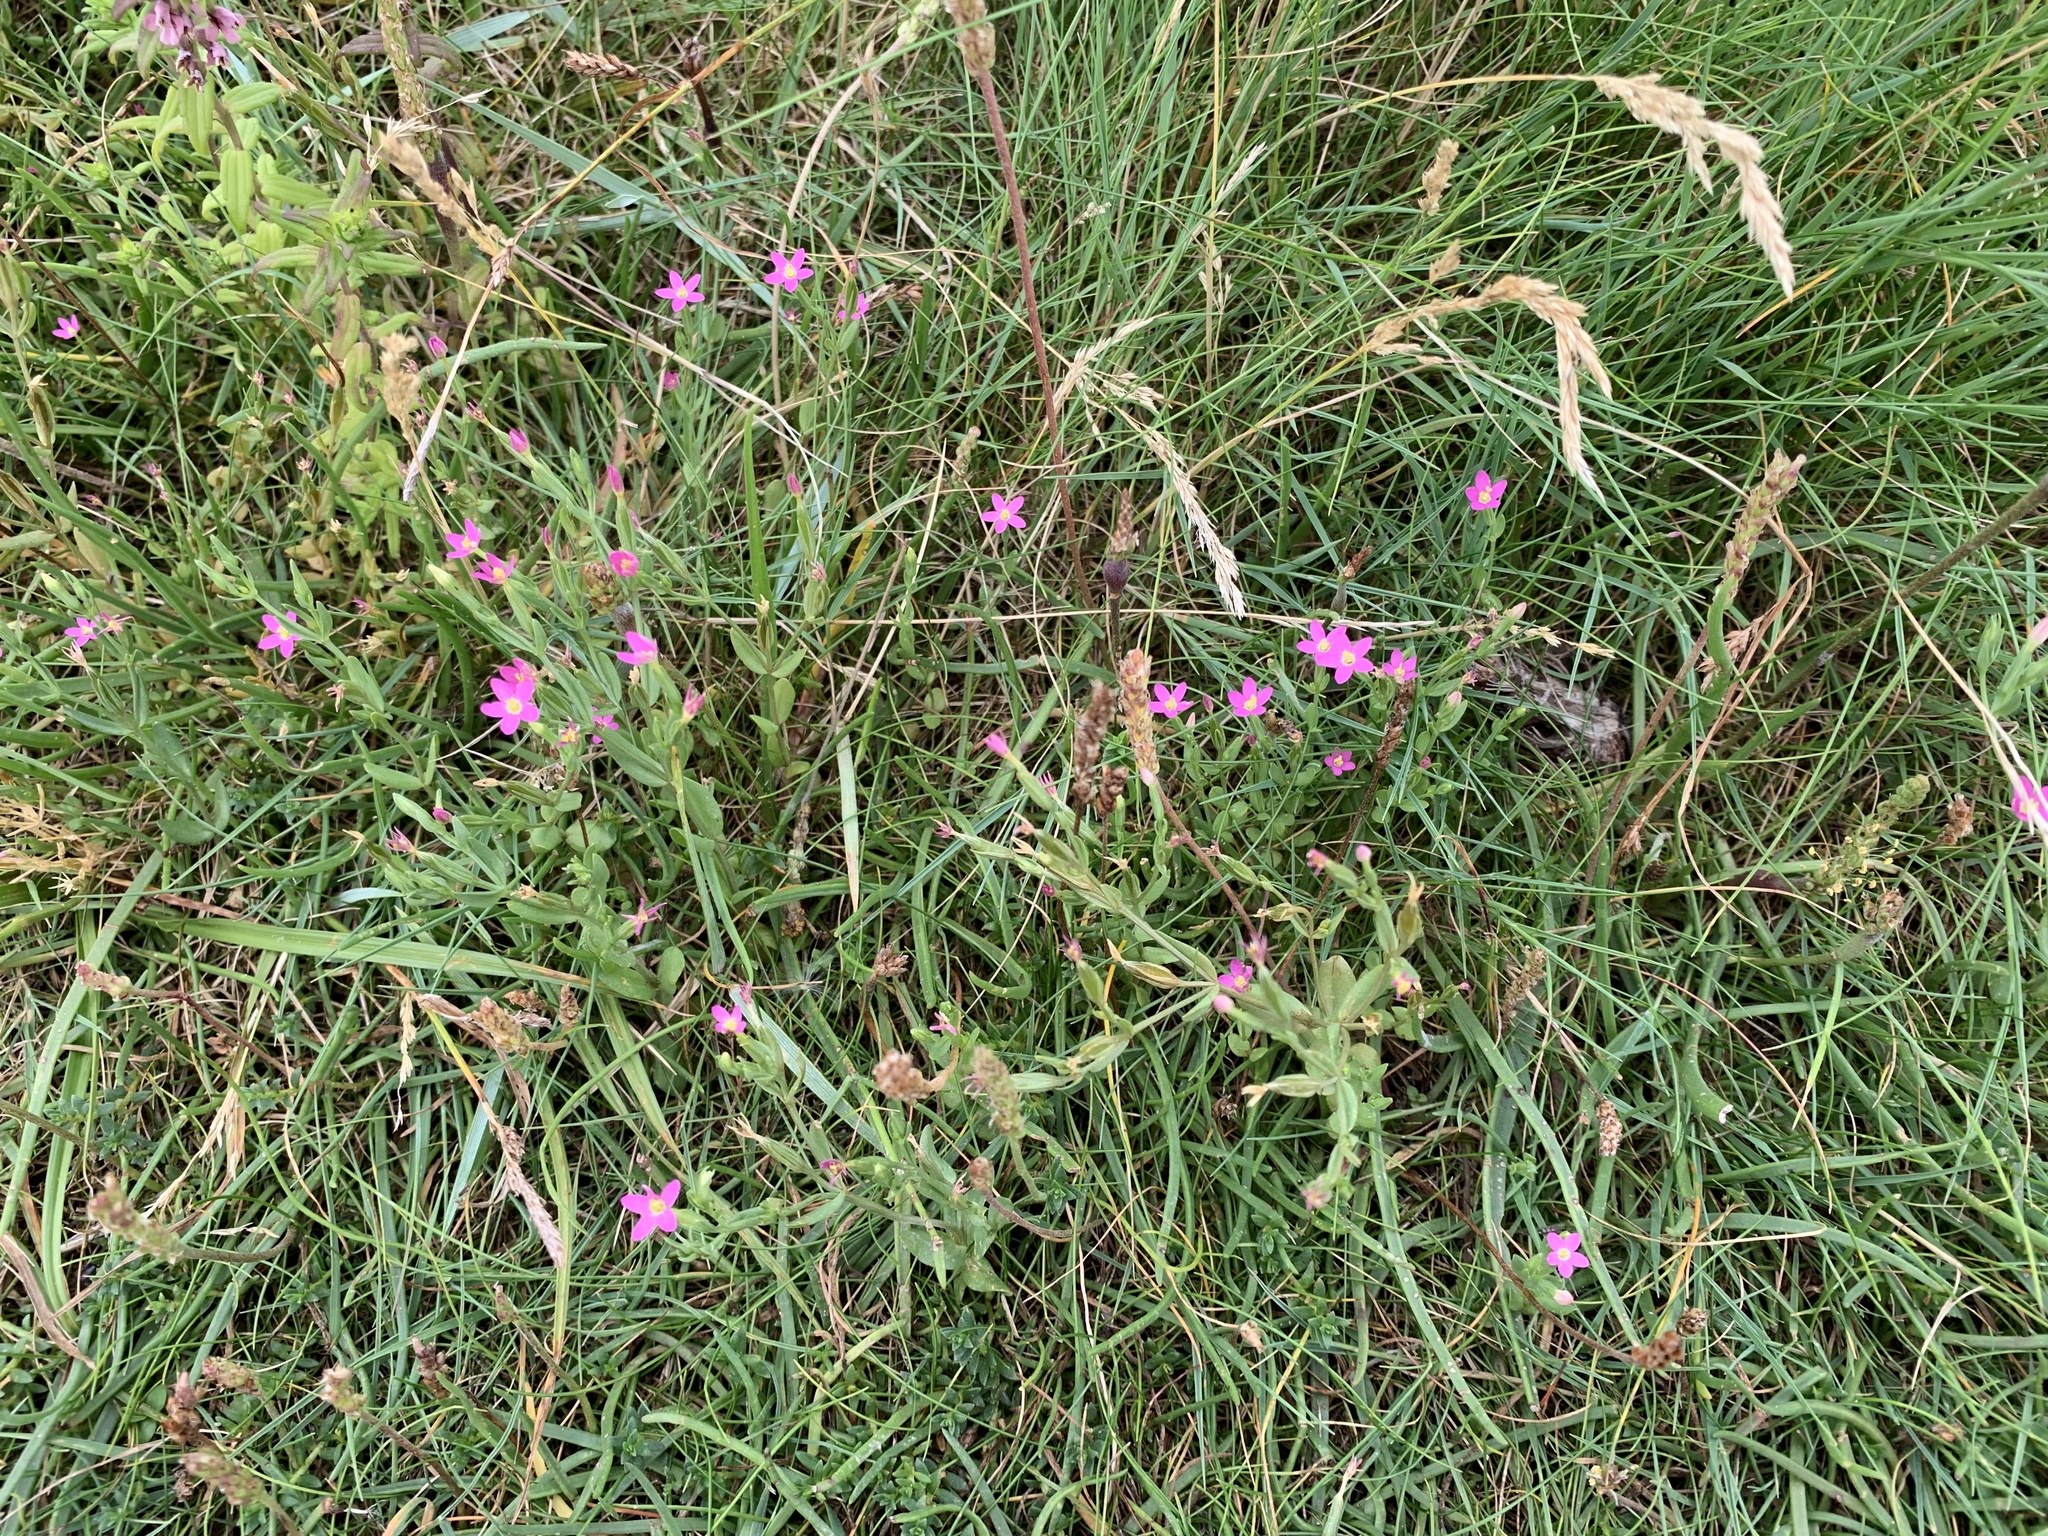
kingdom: Plantae
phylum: Tracheophyta
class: Magnoliopsida
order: Gentianales
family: Gentianaceae
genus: Centaurium
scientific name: Centaurium pulchellum
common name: Lesser centaury
